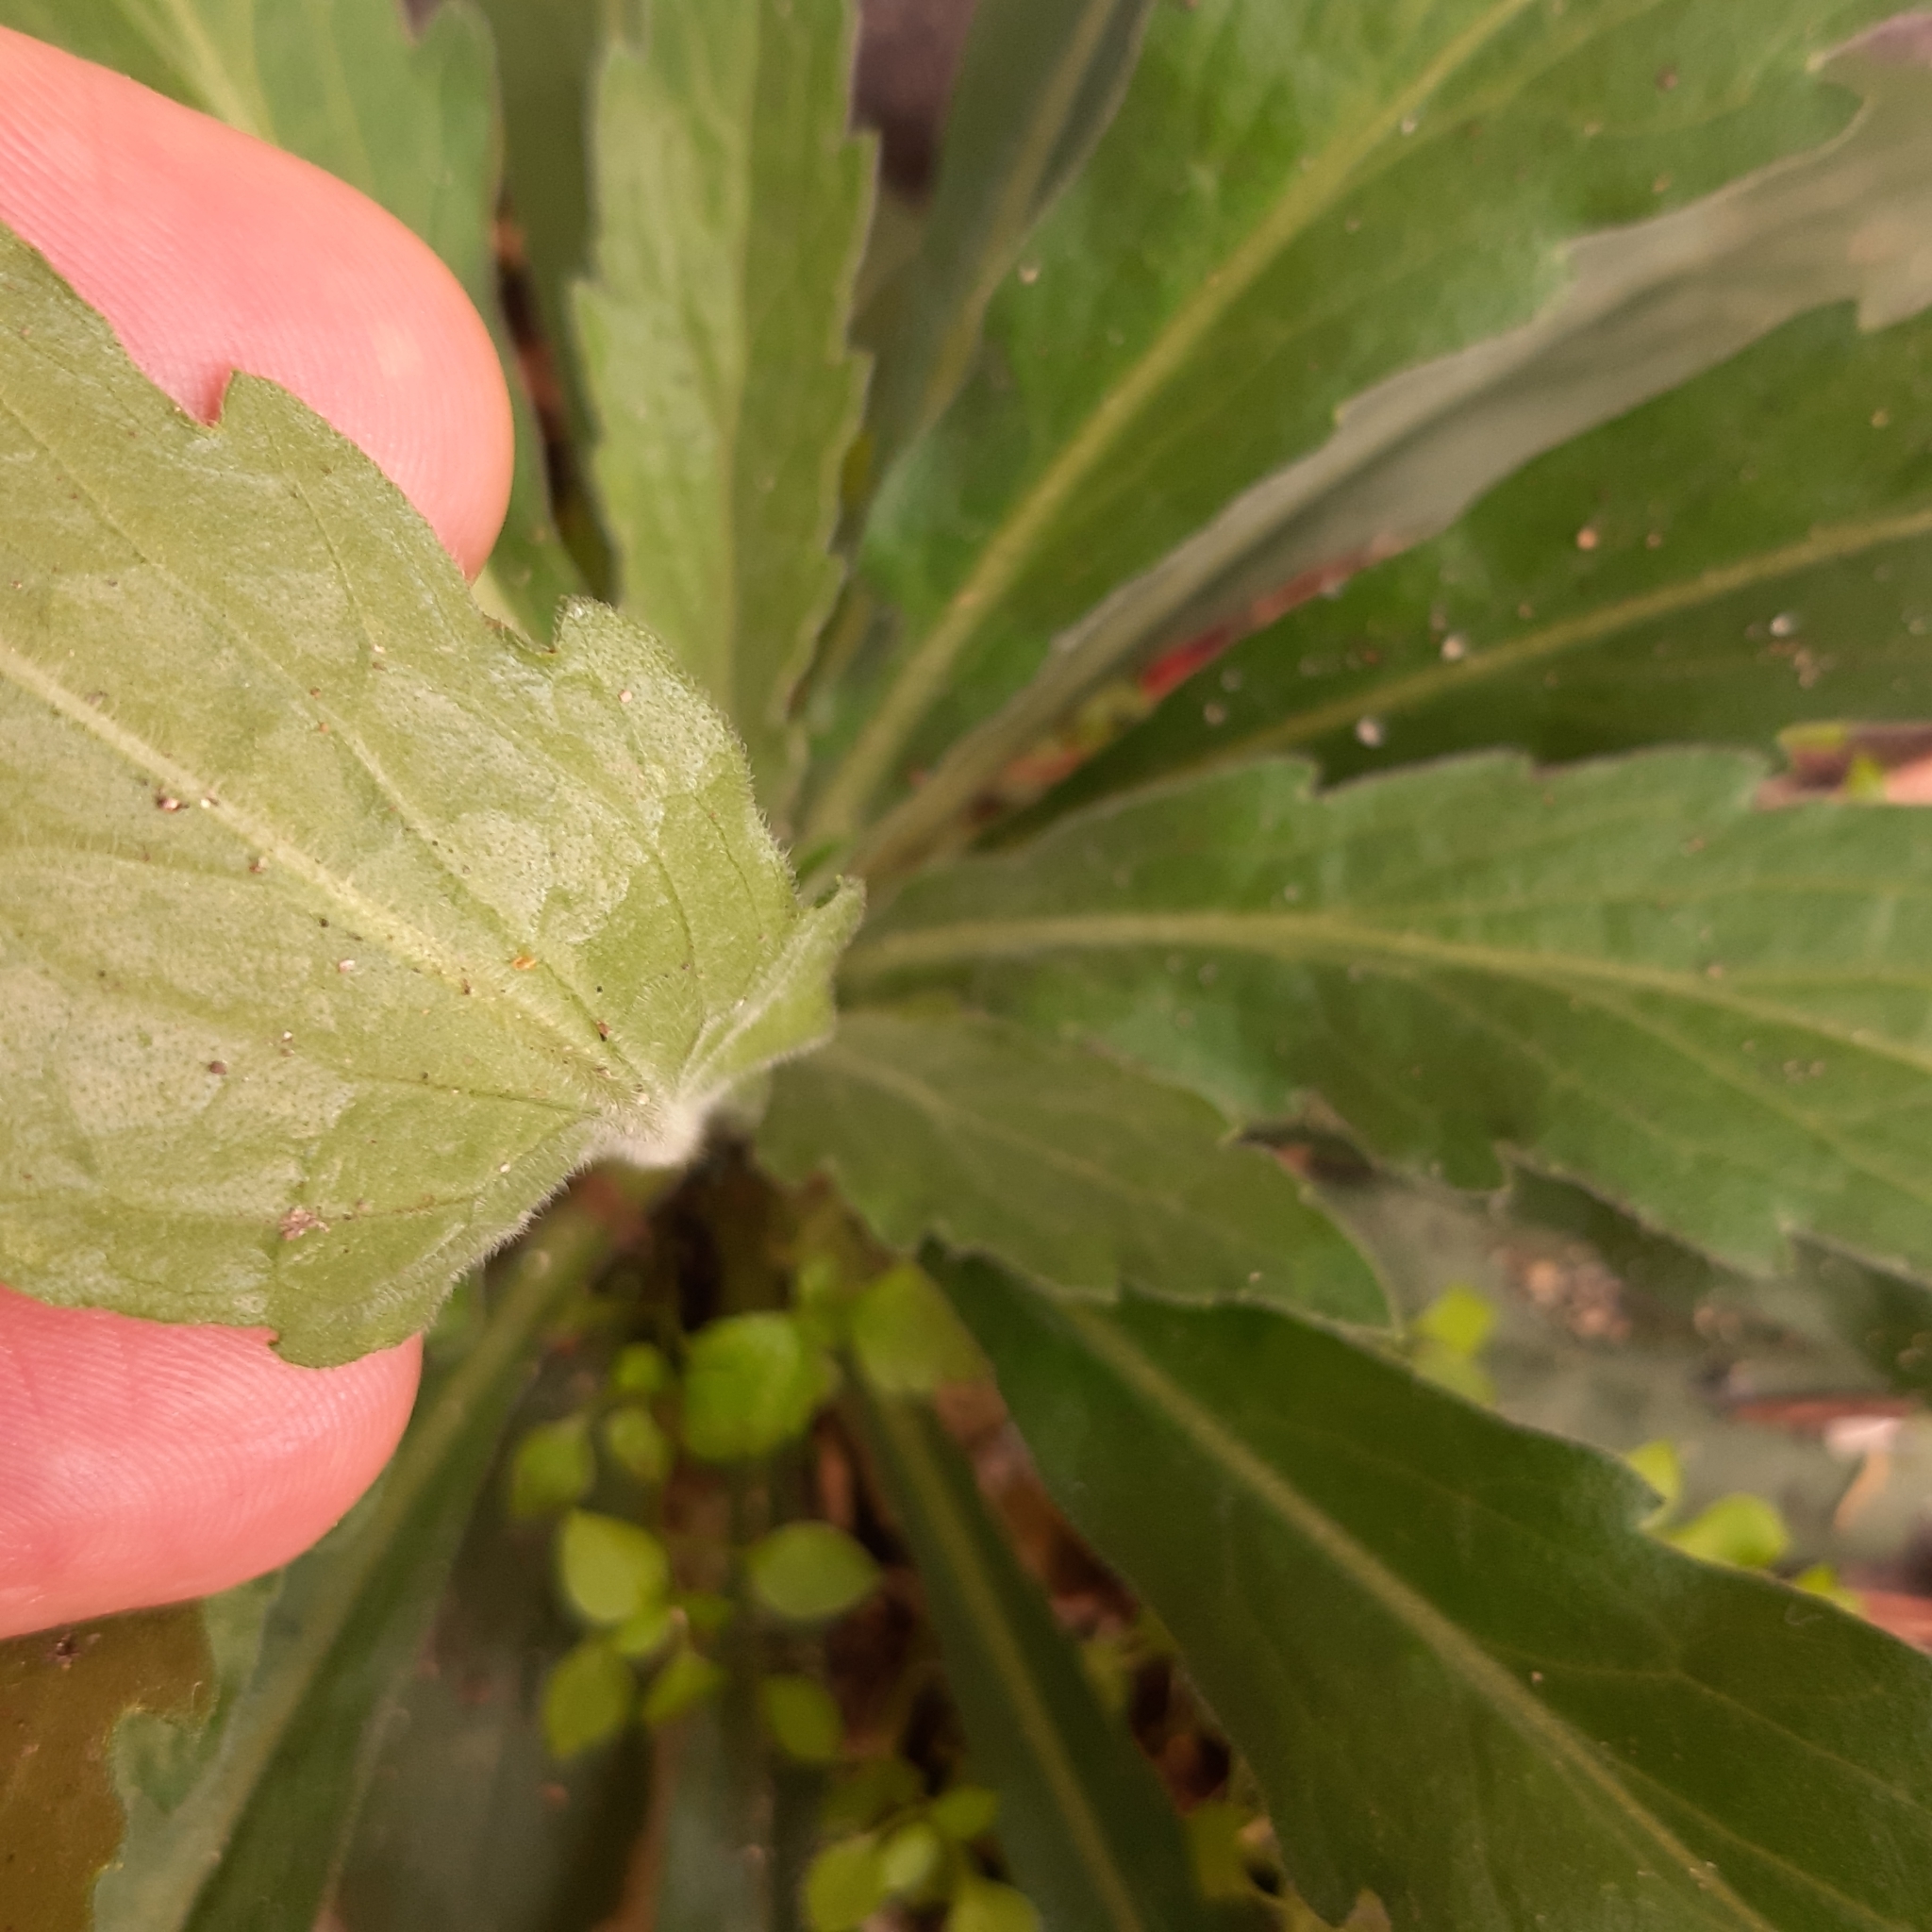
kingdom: Plantae
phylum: Tracheophyta
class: Magnoliopsida
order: Asterales
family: Asteraceae
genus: Erigeron
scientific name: Erigeron sumatrensis
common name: Daisy
